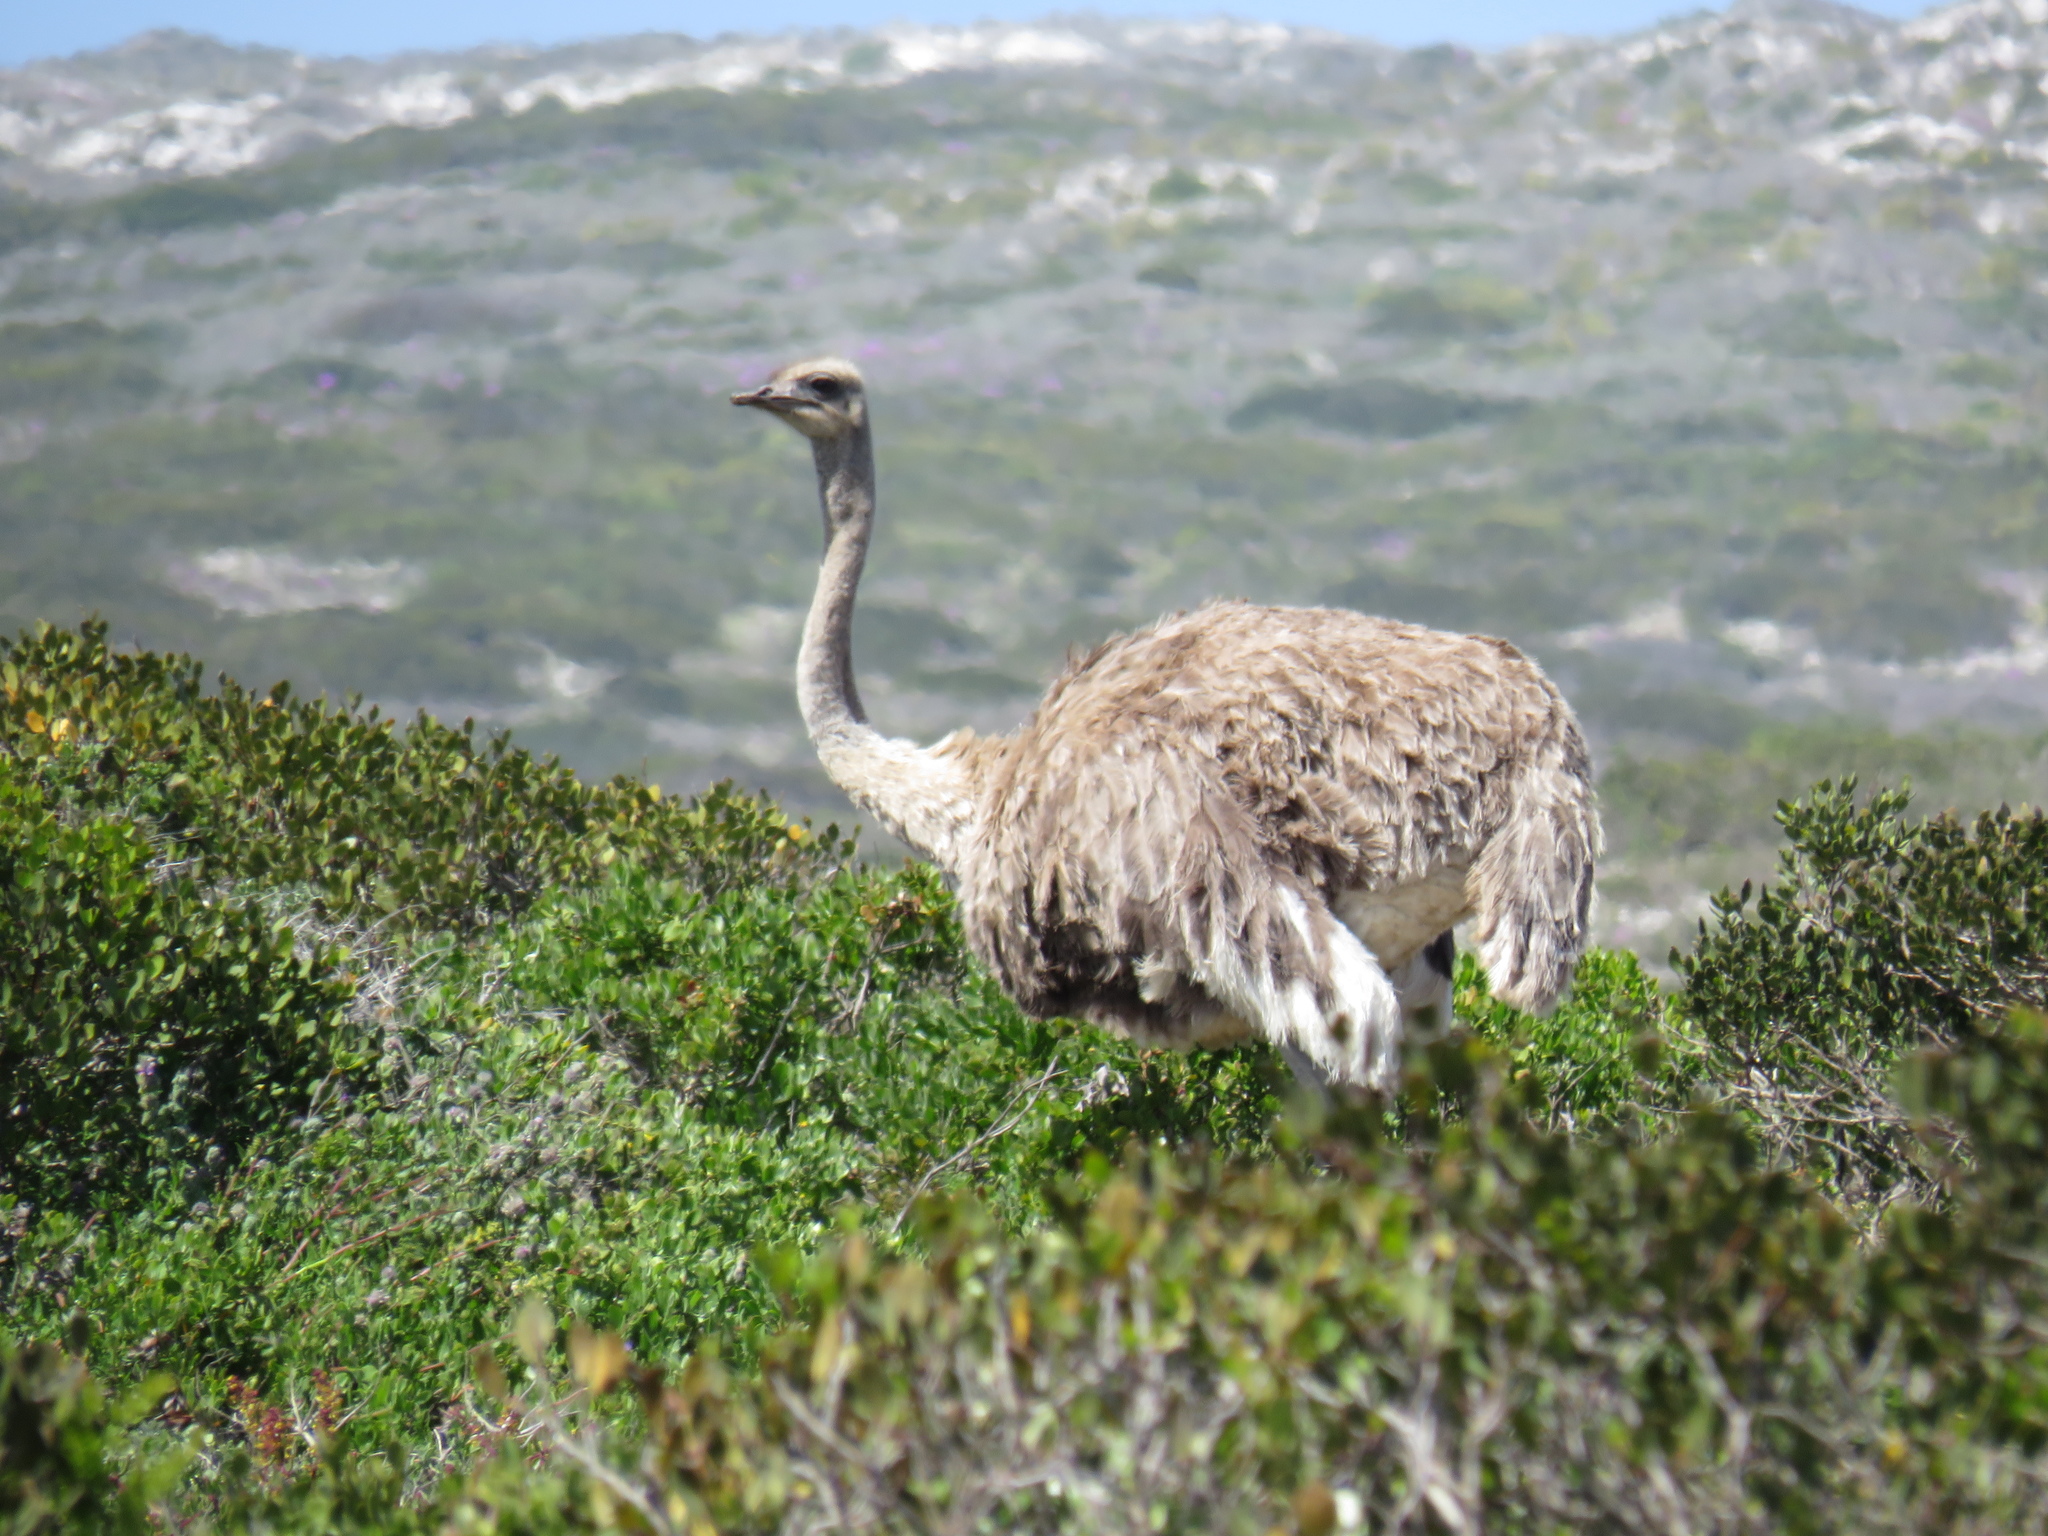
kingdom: Animalia
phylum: Chordata
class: Aves
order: Struthioniformes
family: Struthionidae
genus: Struthio
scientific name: Struthio camelus
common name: Common ostrich
